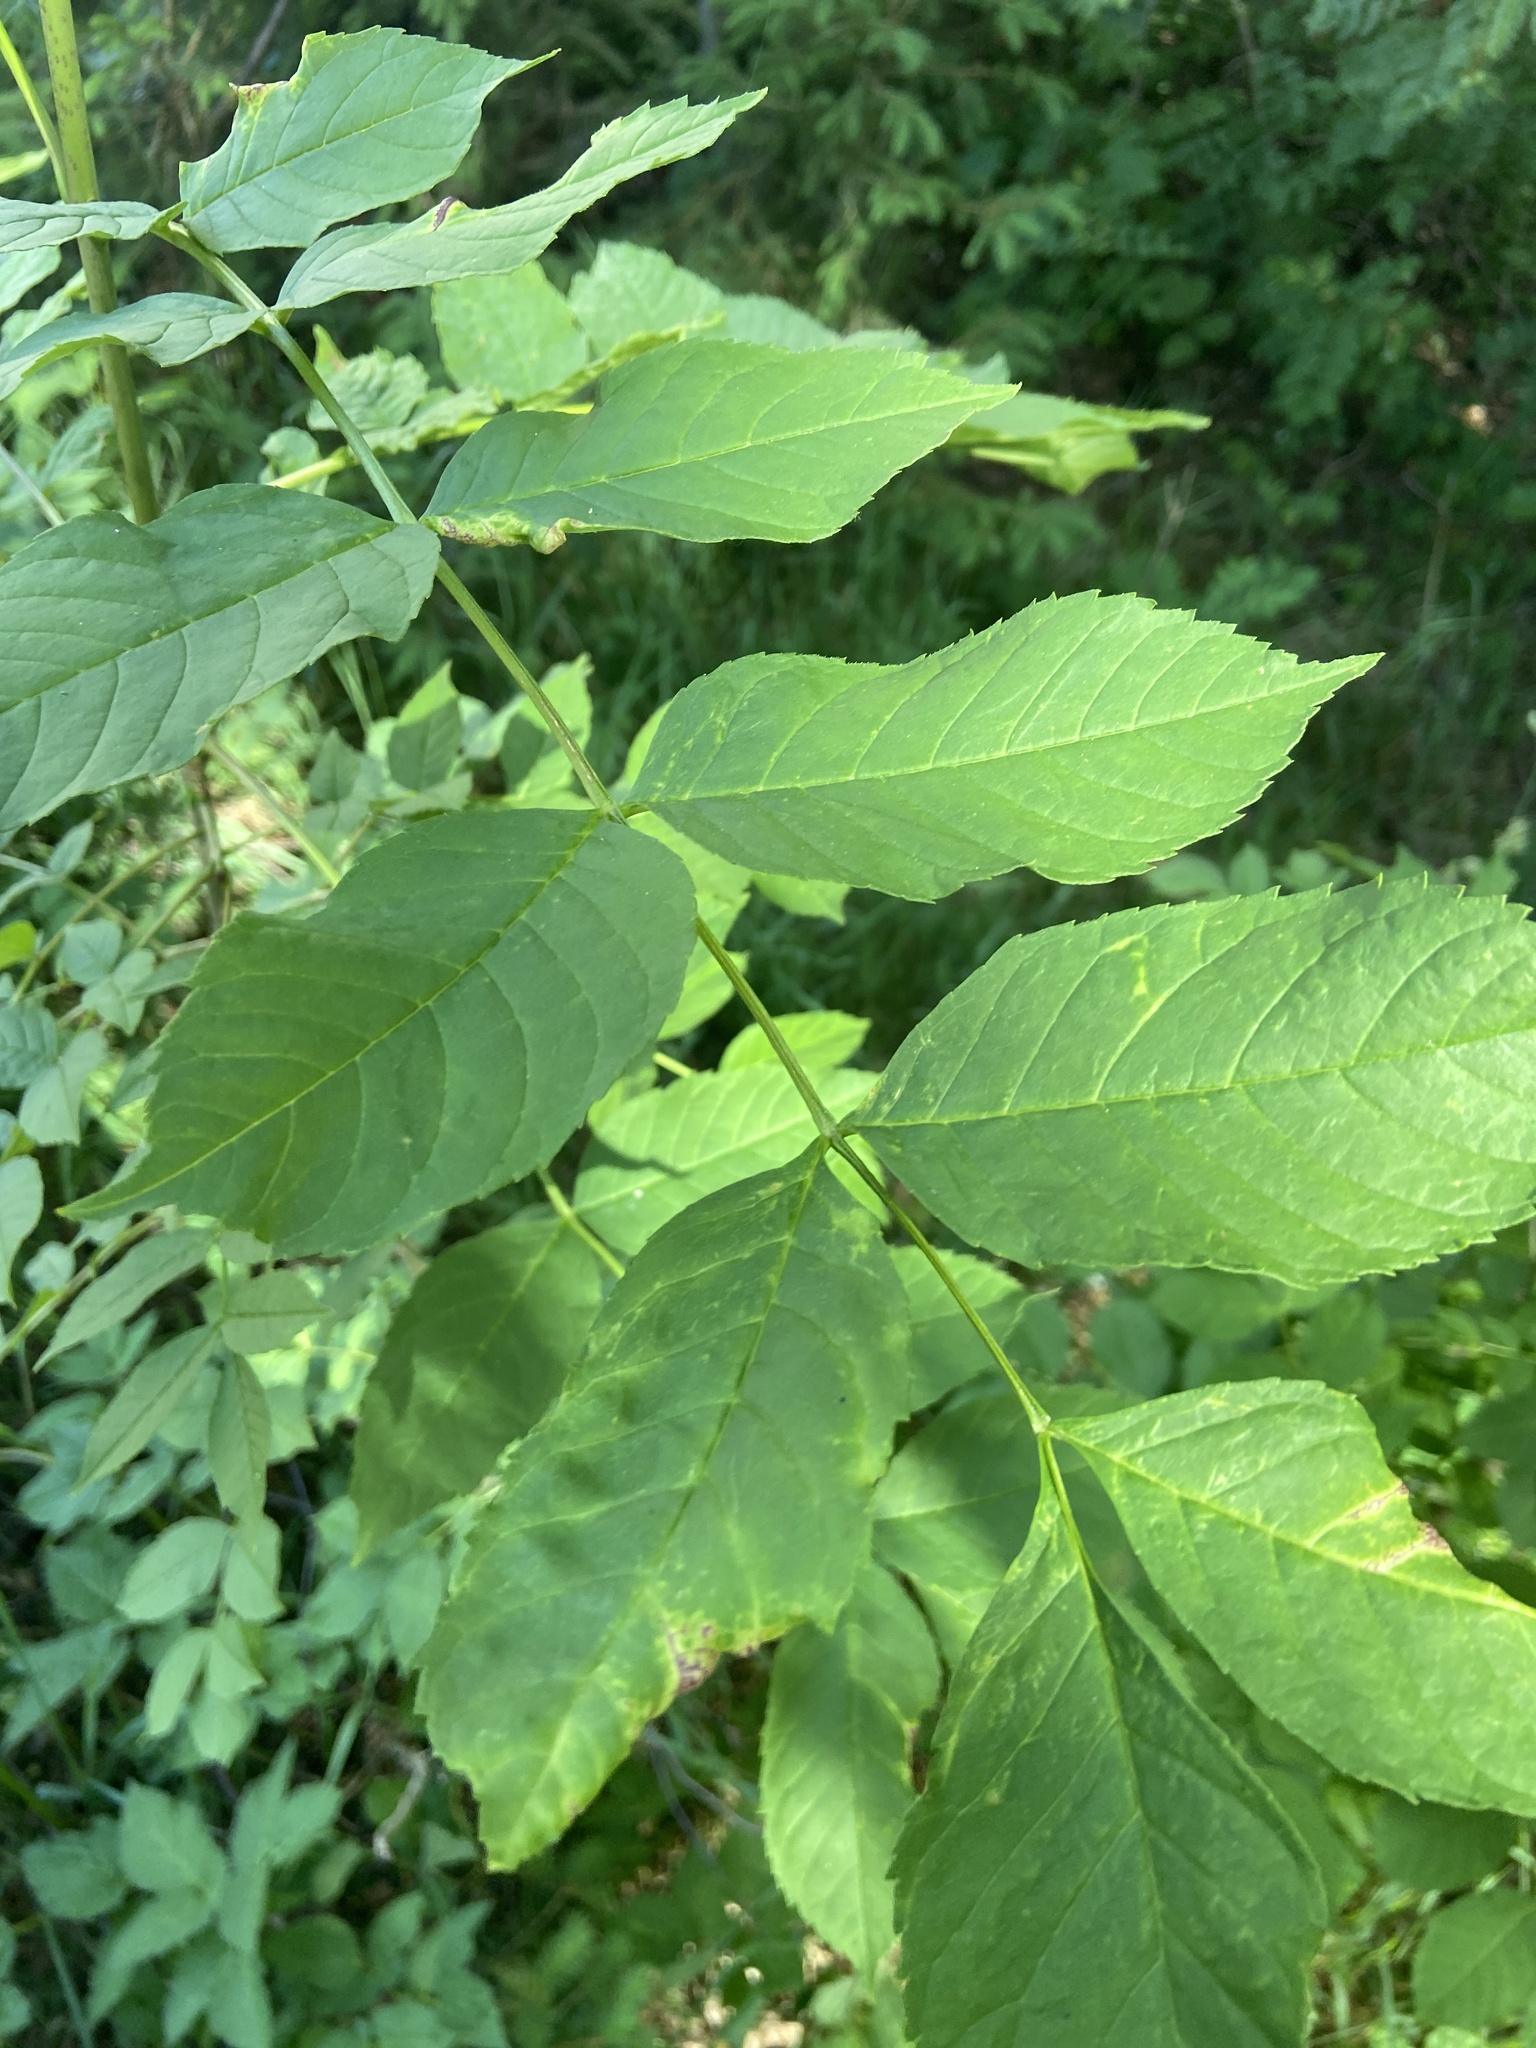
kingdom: Animalia
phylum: Arthropoda
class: Insecta
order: Hemiptera
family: Liviidae
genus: Psyllopsis
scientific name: Psyllopsis fraxini
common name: Jumping plant louse
